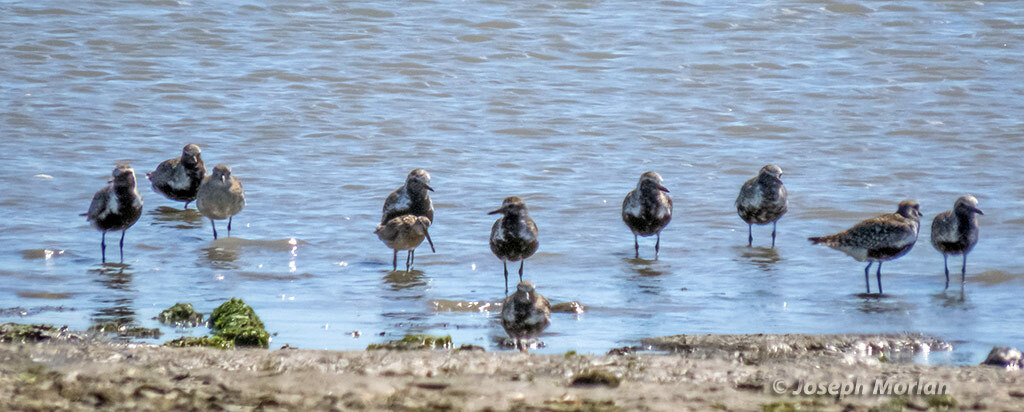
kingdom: Animalia
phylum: Chordata
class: Aves
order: Charadriiformes
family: Charadriidae
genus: Pluvialis
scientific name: Pluvialis squatarola
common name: Grey plover
